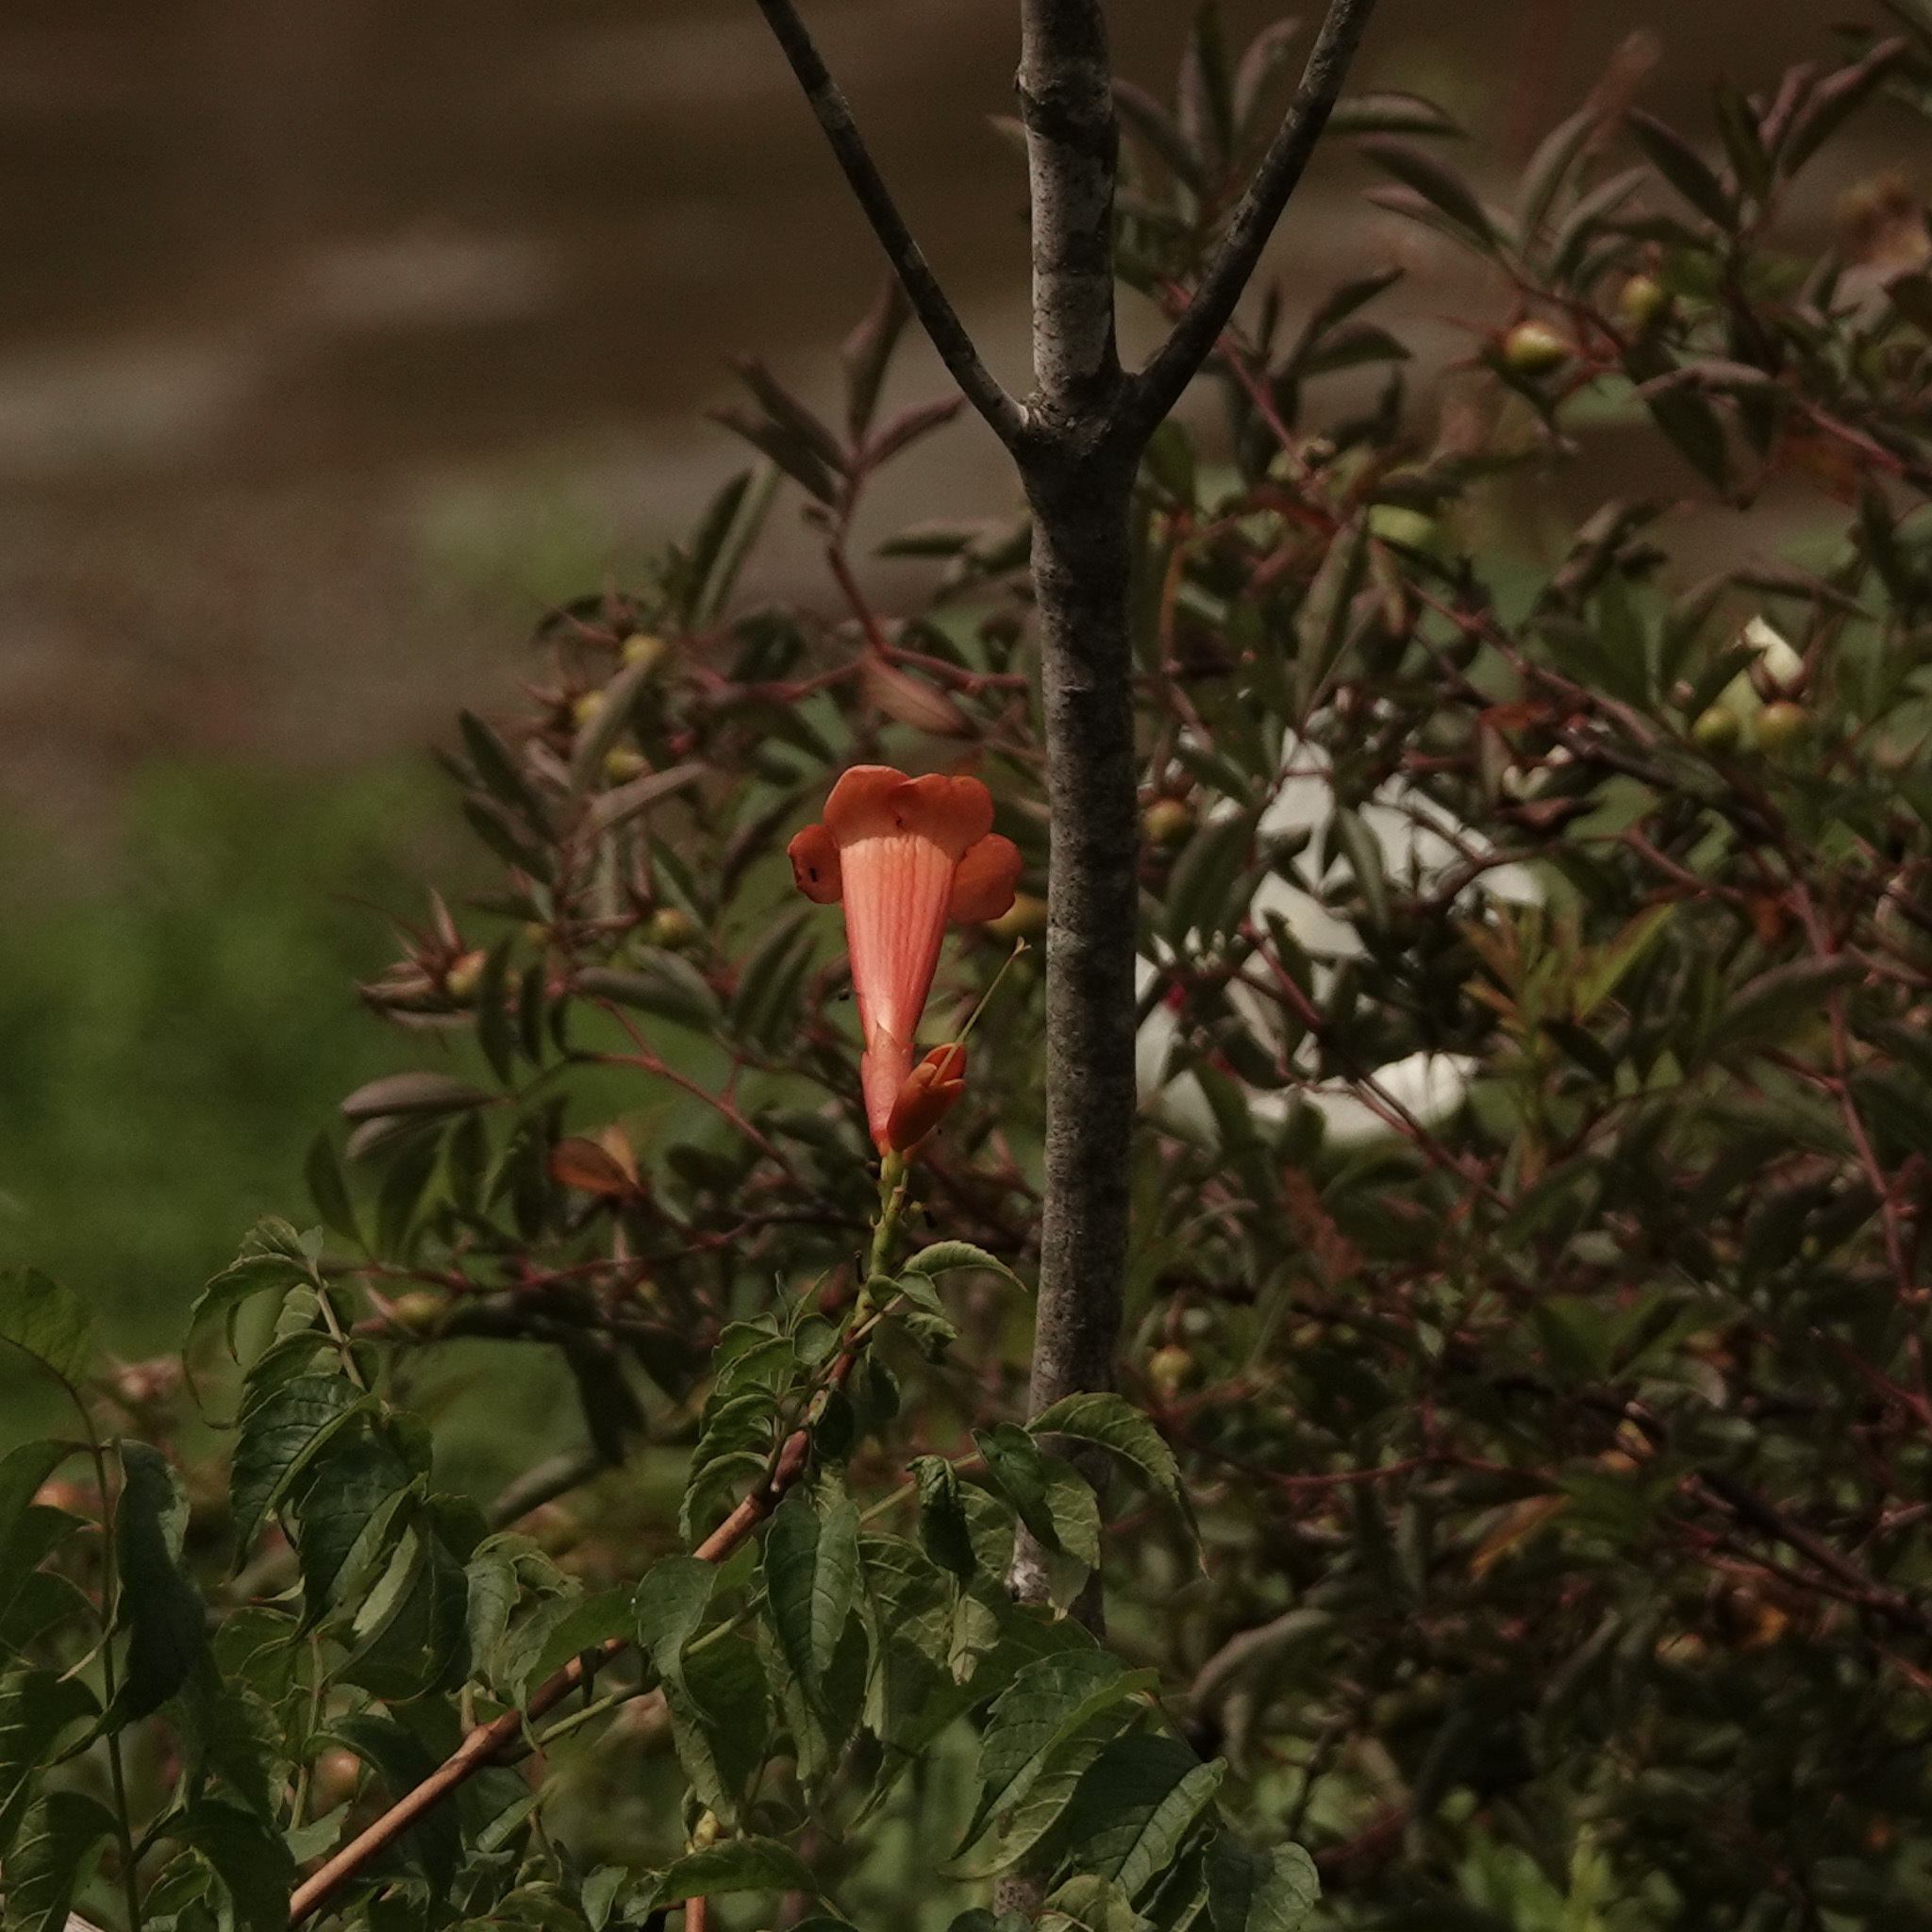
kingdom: Plantae
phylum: Tracheophyta
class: Magnoliopsida
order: Lamiales
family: Bignoniaceae
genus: Campsis
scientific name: Campsis radicans
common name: Trumpet-creeper
